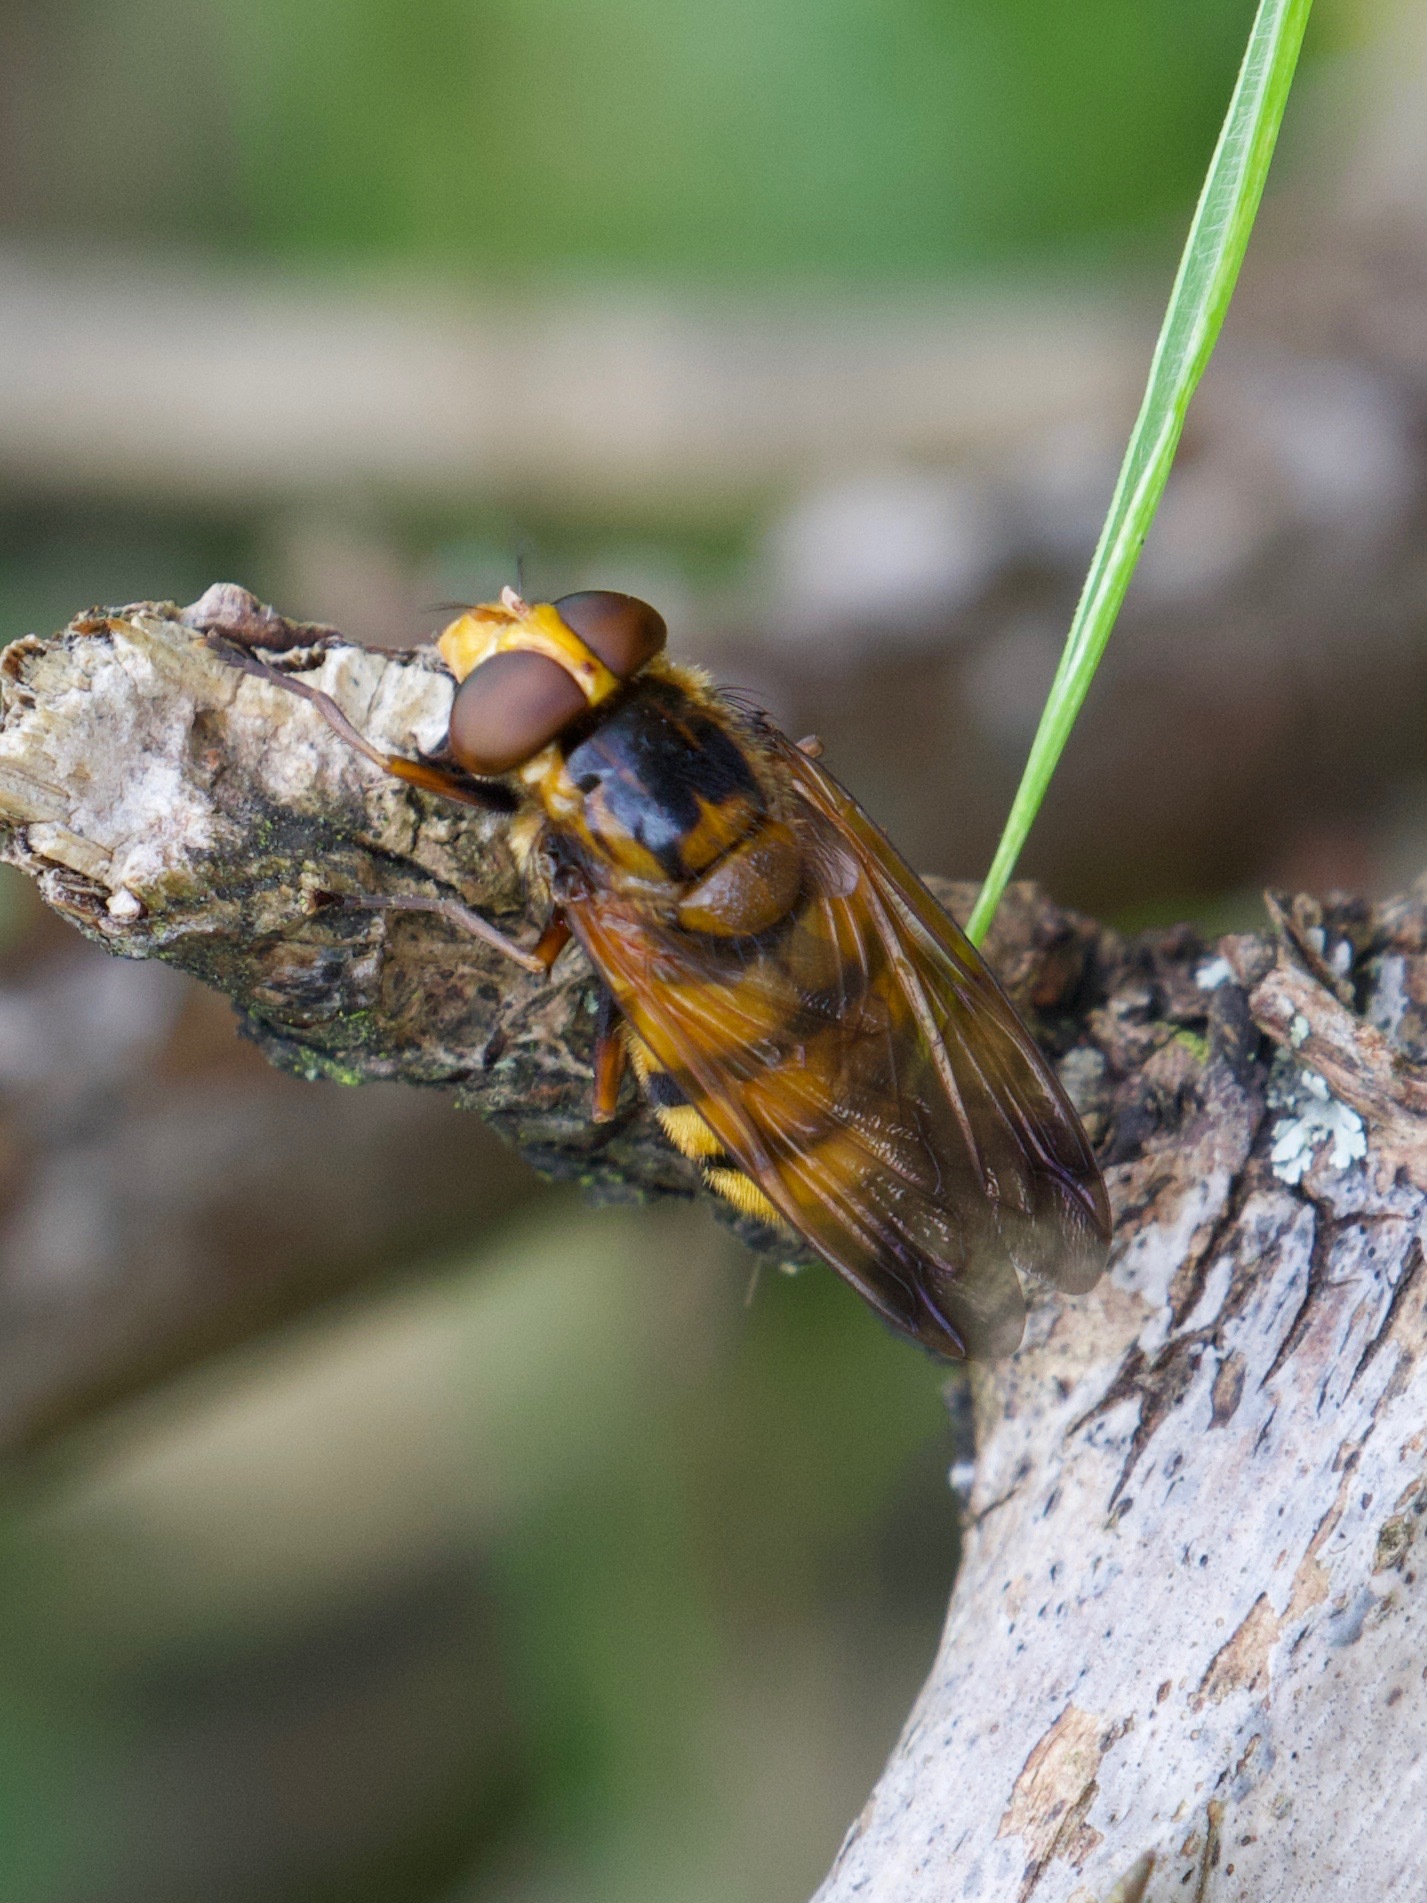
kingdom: Animalia
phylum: Arthropoda
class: Insecta
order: Diptera
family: Syrphidae
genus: Volucella
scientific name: Volucella inanis
